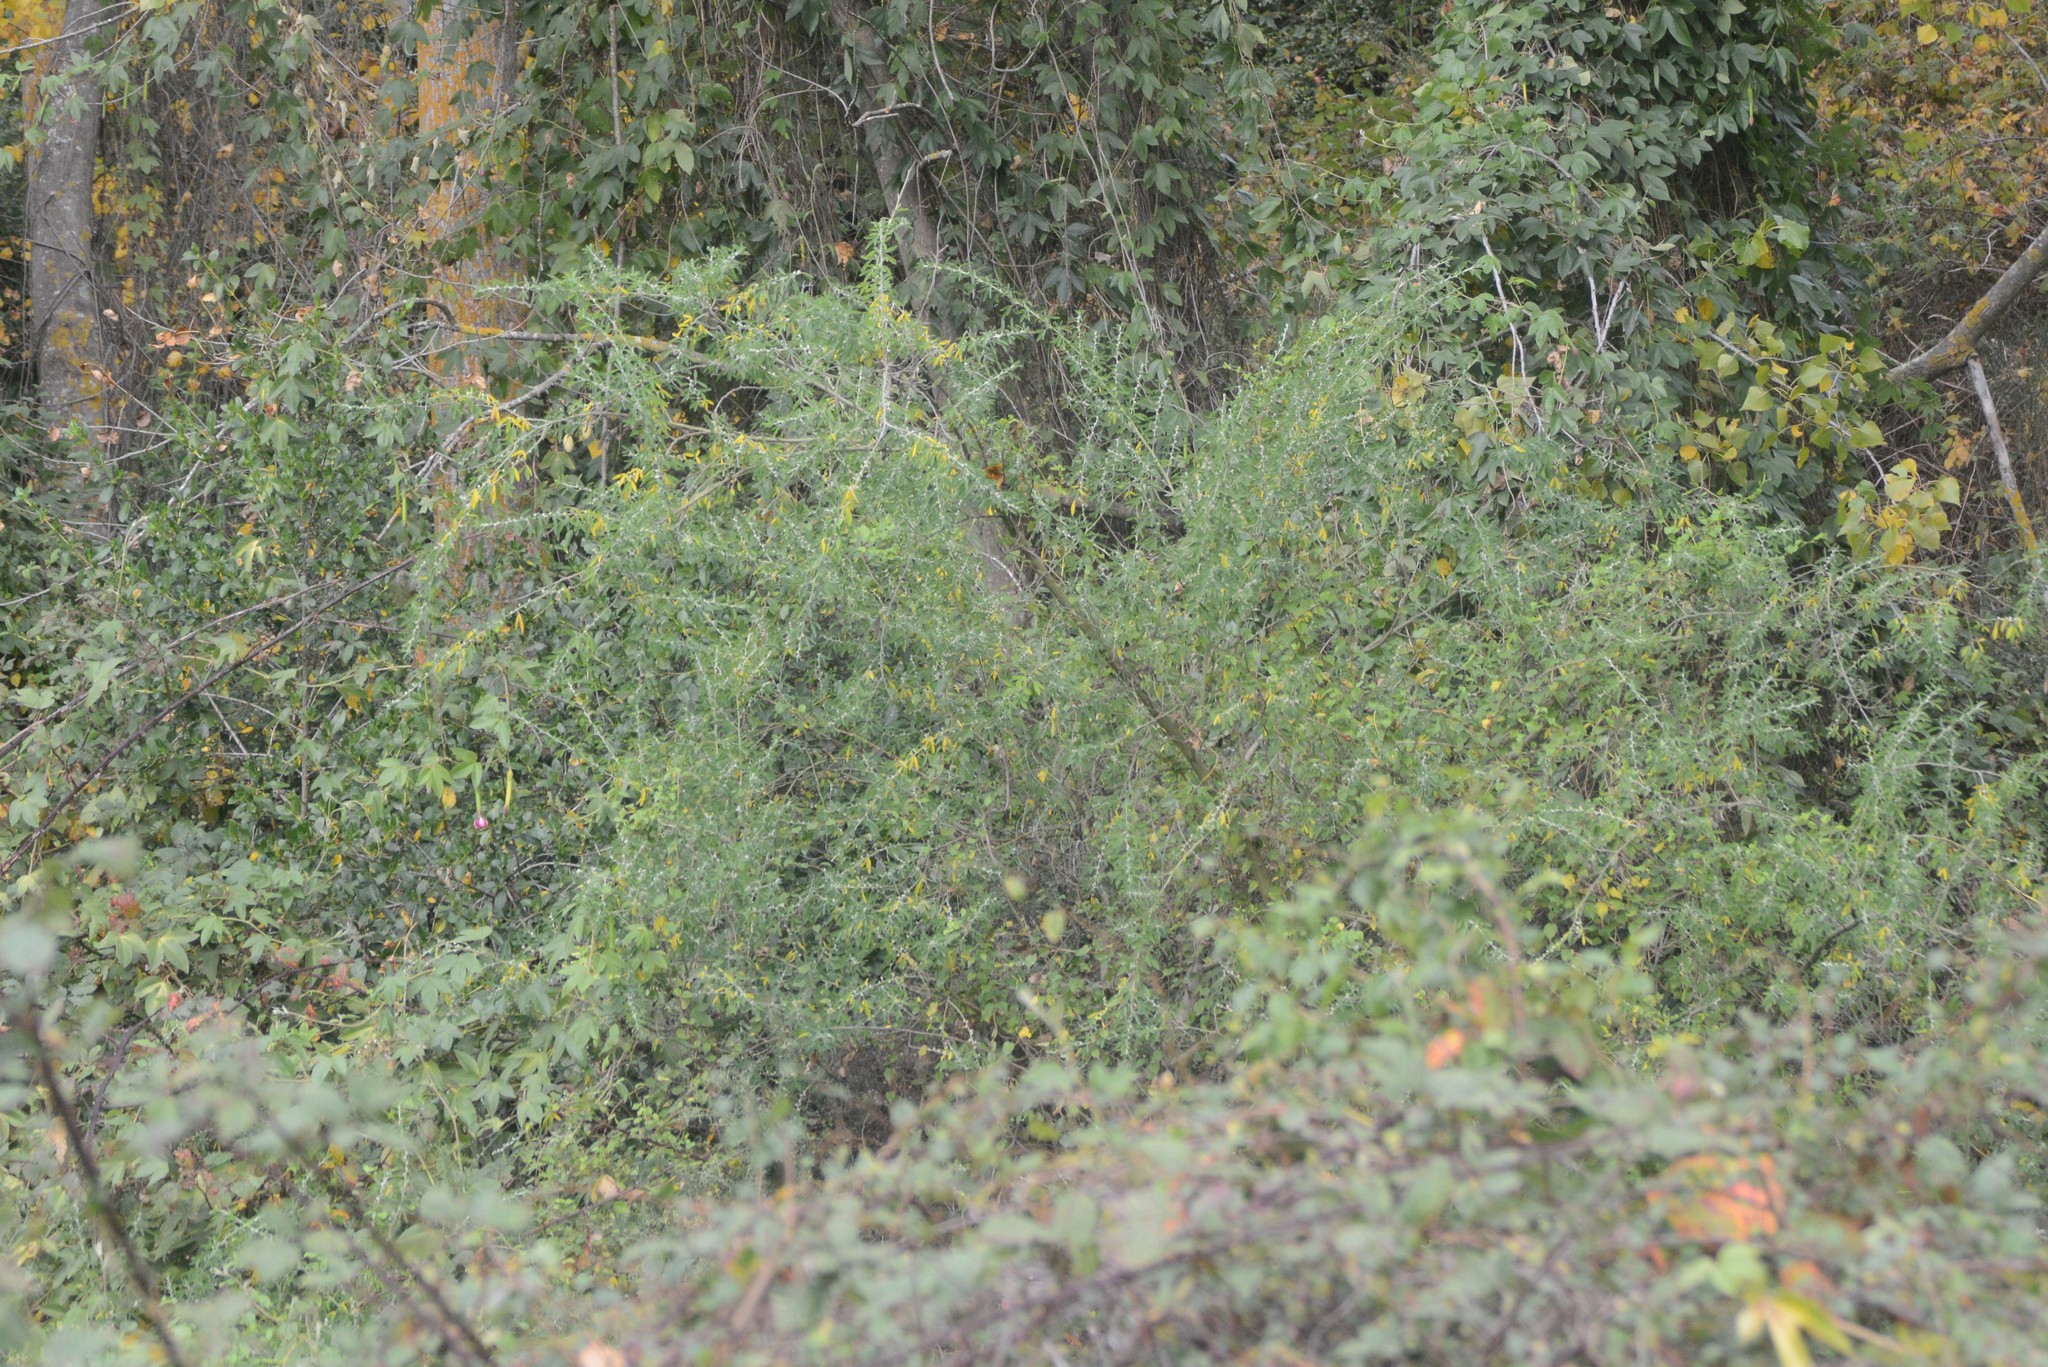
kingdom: Plantae
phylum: Tracheophyta
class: Magnoliopsida
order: Fabales
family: Fabaceae
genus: Chamaecytisus
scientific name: Chamaecytisus prolifer
